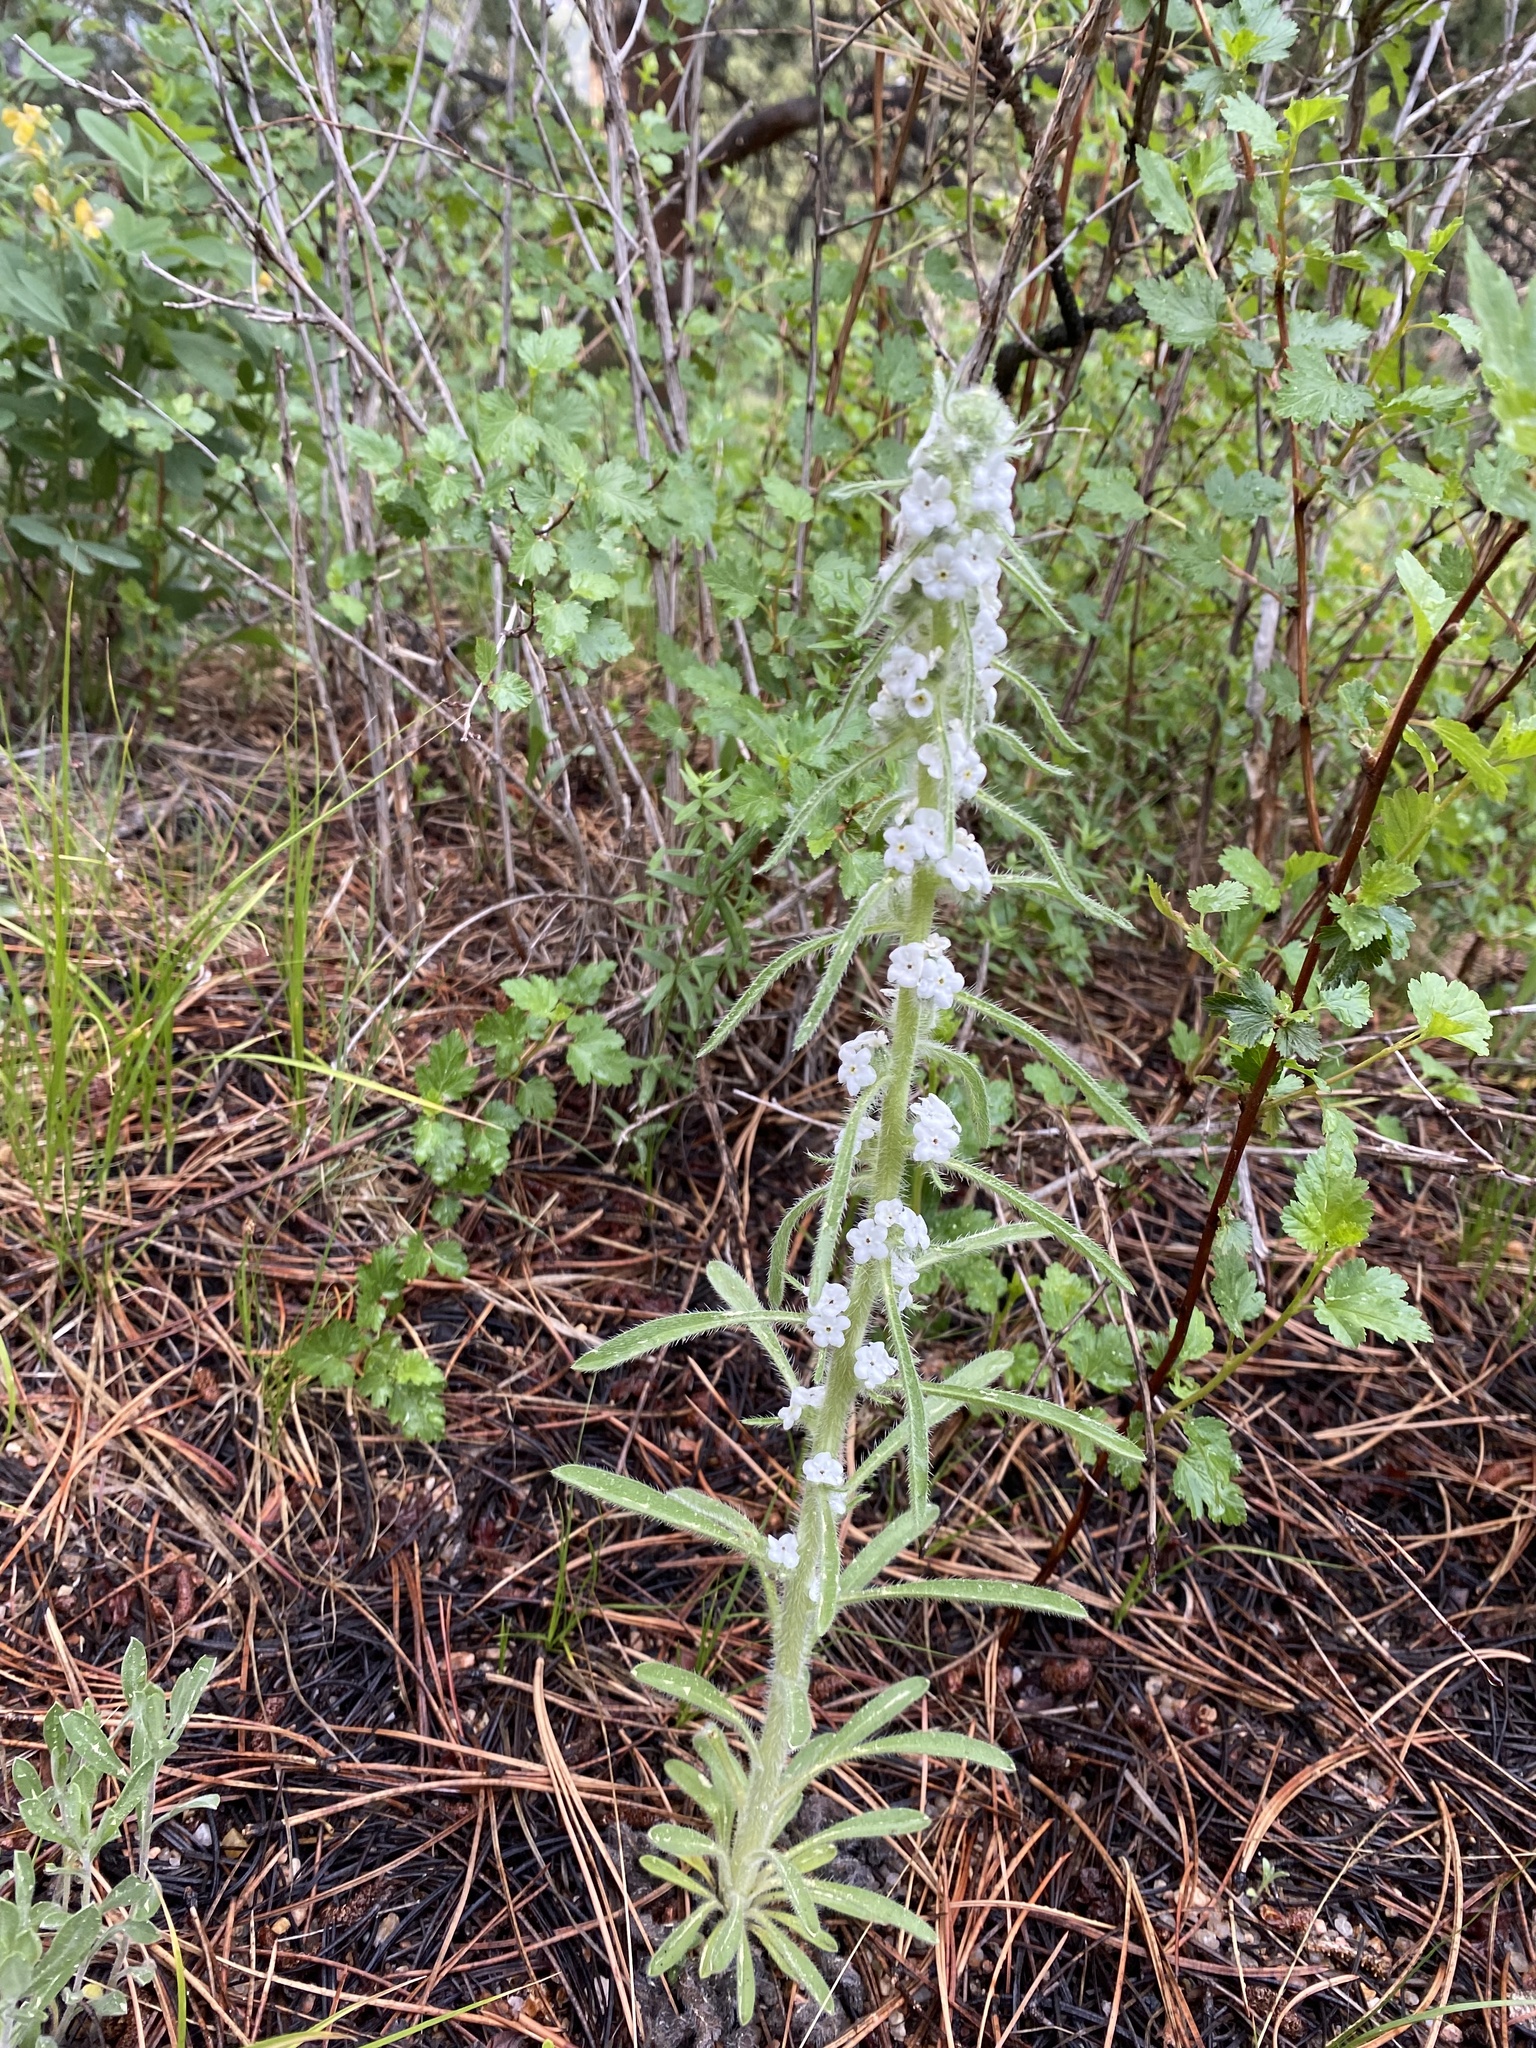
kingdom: Plantae
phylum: Tracheophyta
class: Magnoliopsida
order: Boraginales
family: Boraginaceae
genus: Oreocarya
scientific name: Oreocarya virgata
